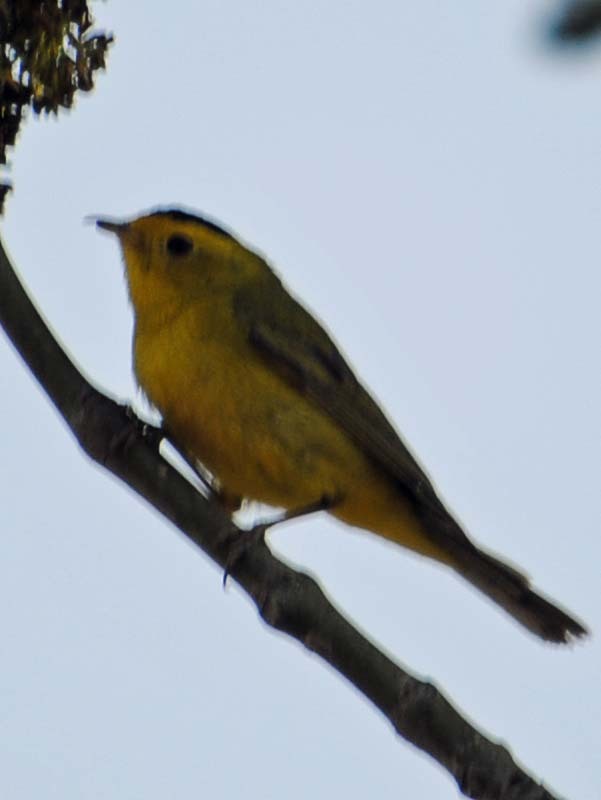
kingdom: Animalia
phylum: Chordata
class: Aves
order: Passeriformes
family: Parulidae
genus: Cardellina
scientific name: Cardellina pusilla
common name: Wilson's warbler
